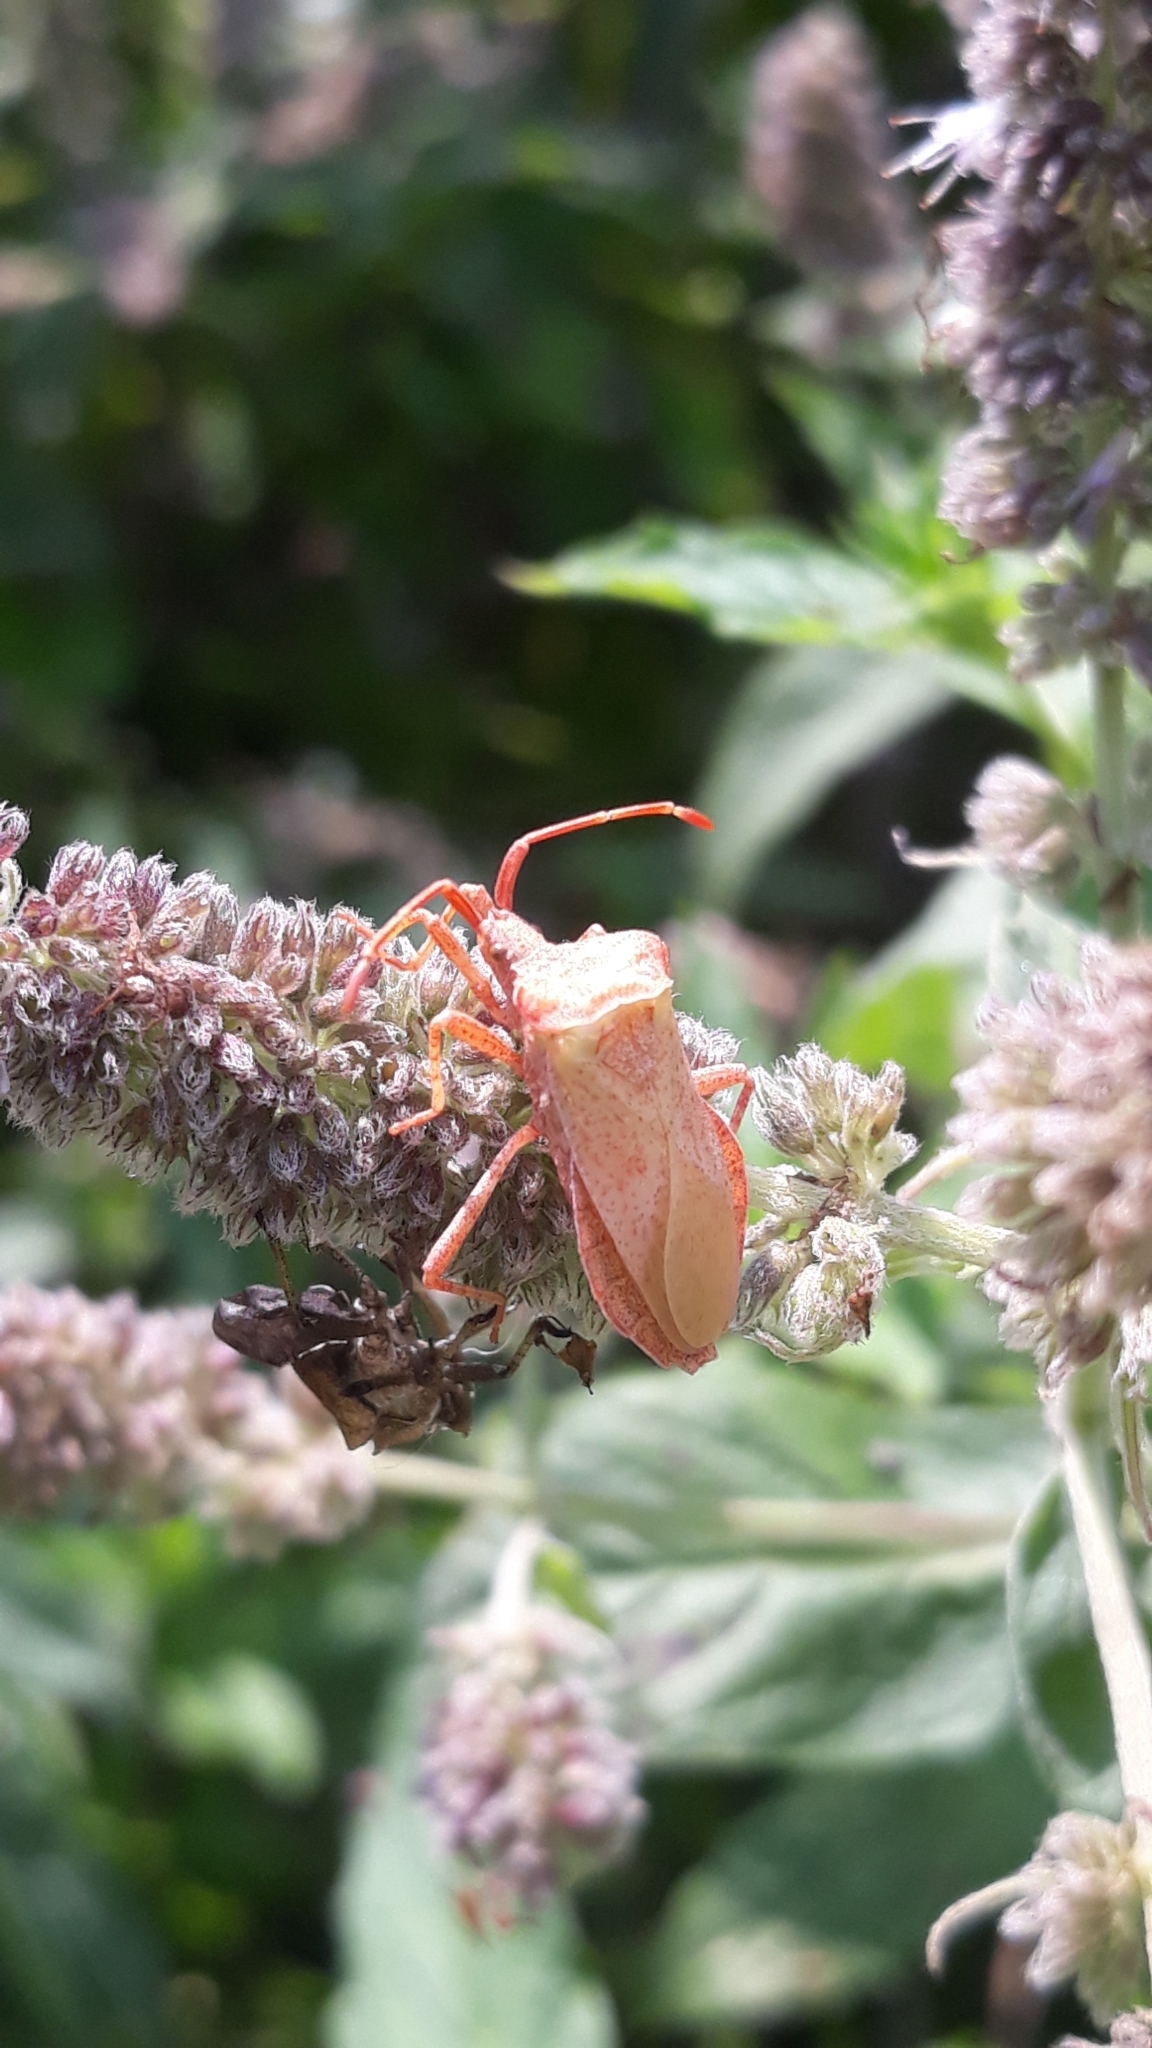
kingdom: Animalia
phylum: Arthropoda
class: Insecta
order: Hemiptera
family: Coreidae
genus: Coreus
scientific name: Coreus marginatus
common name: Dock bug
